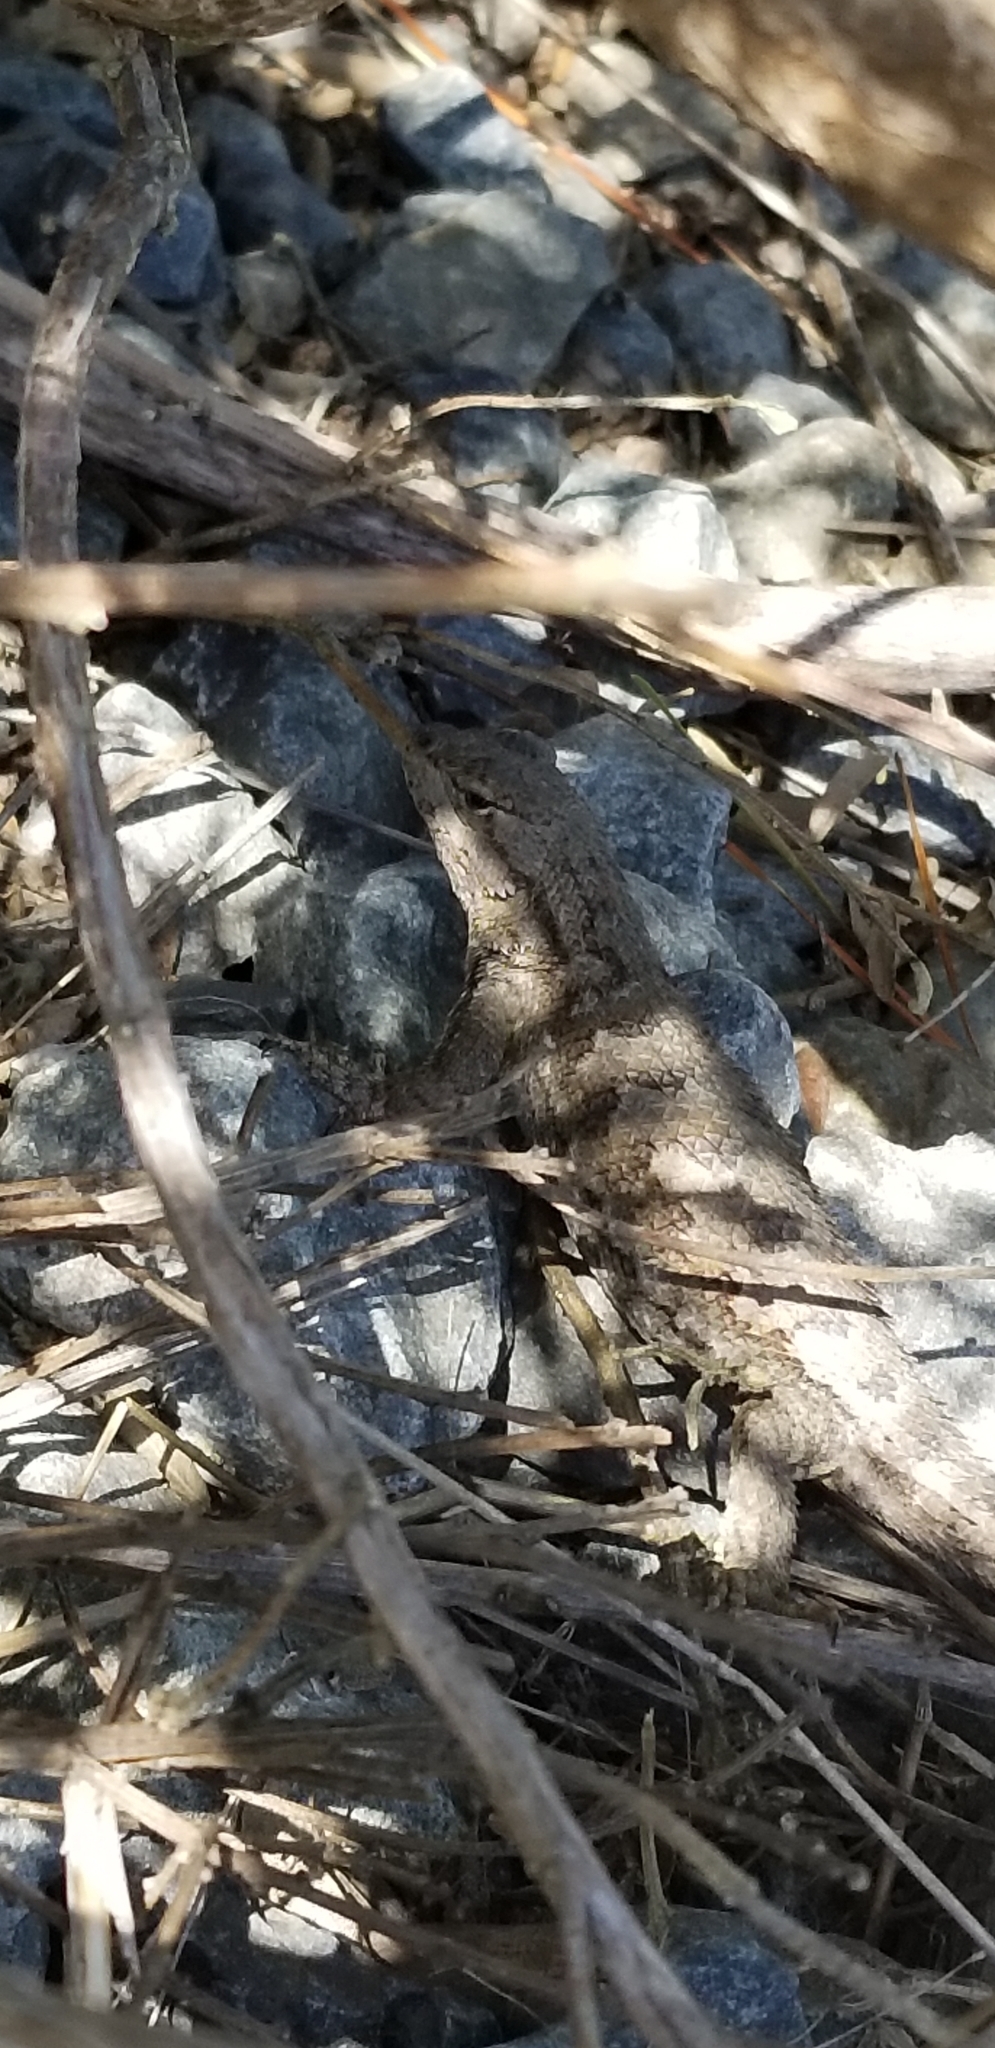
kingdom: Animalia
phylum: Chordata
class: Squamata
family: Phrynosomatidae
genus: Sceloporus
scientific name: Sceloporus occidentalis
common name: Western fence lizard
